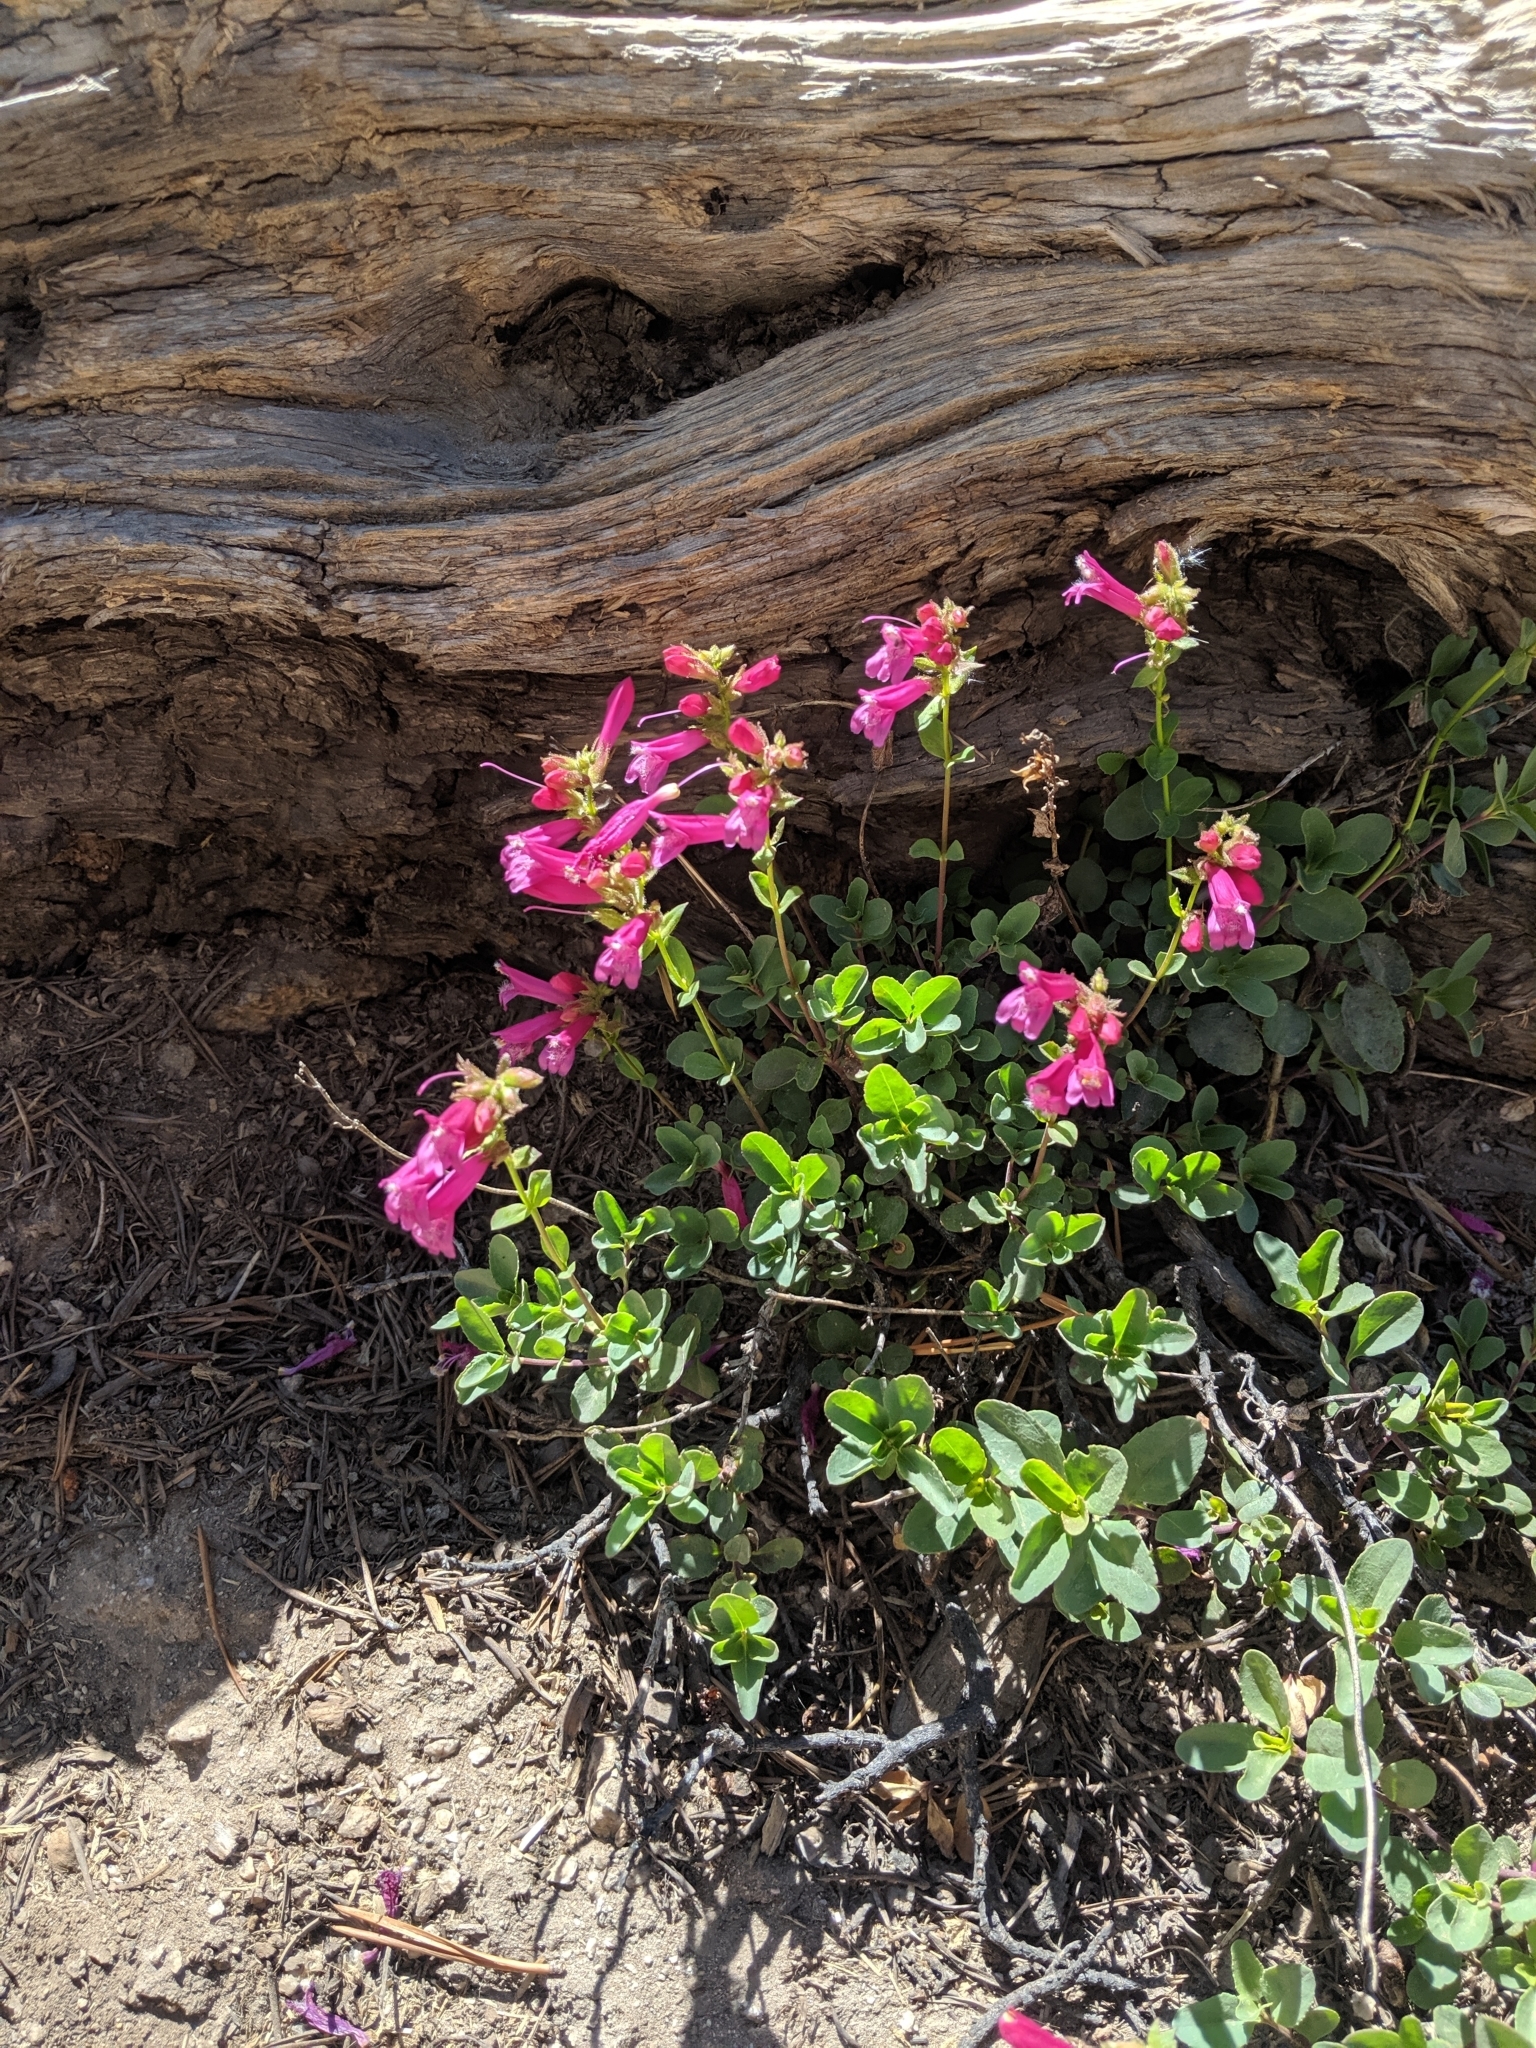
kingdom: Plantae
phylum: Tracheophyta
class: Magnoliopsida
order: Lamiales
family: Plantaginaceae
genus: Penstemon
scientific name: Penstemon newberryi
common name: Mountain-pride
